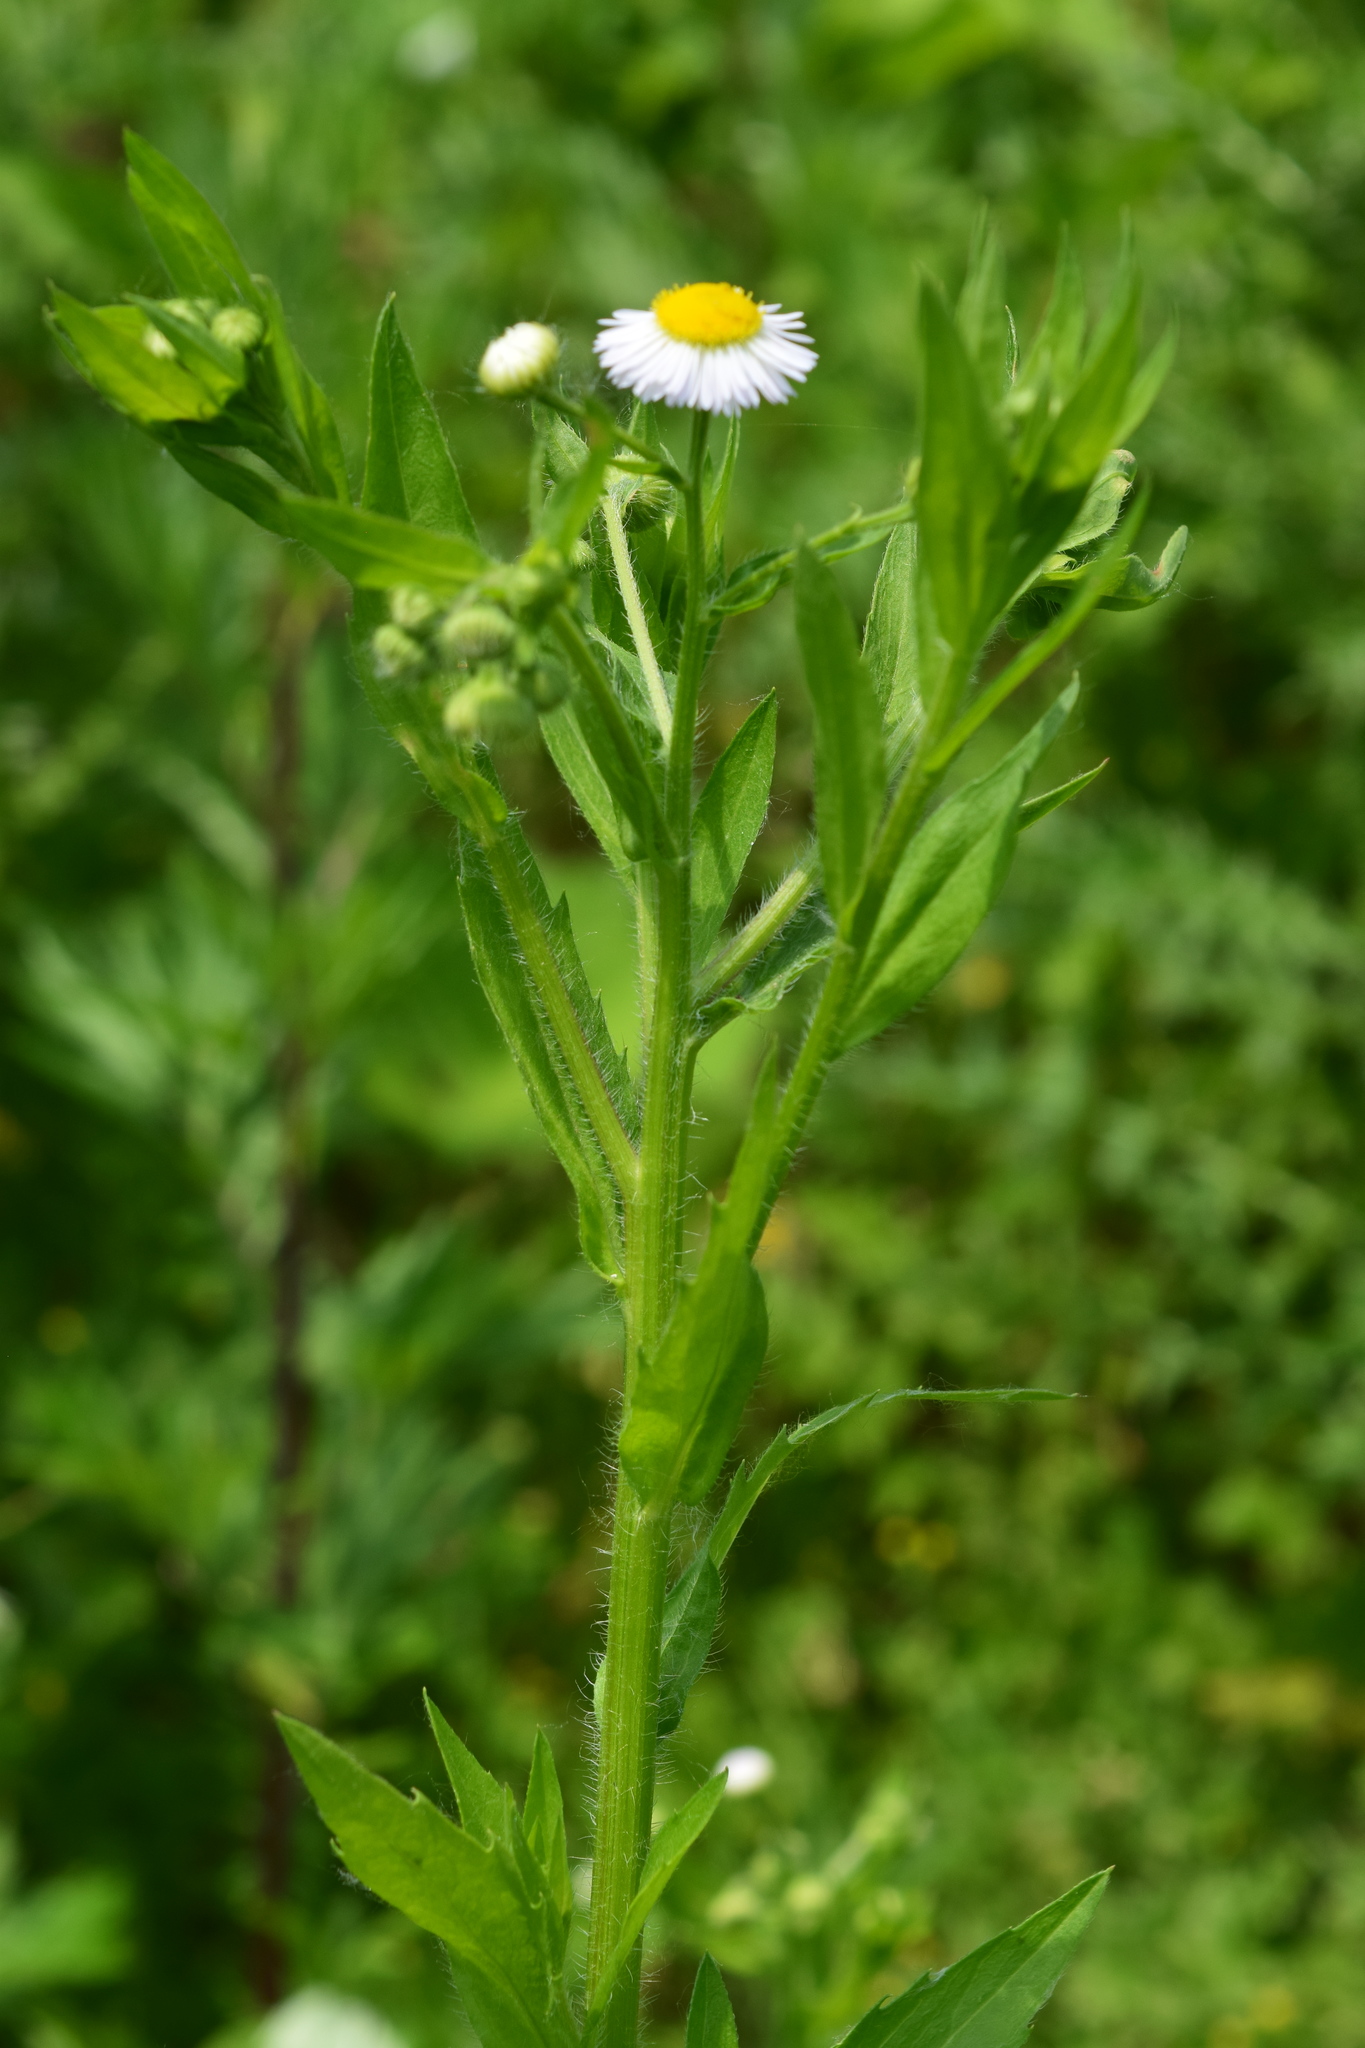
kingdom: Plantae
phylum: Tracheophyta
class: Magnoliopsida
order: Asterales
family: Asteraceae
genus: Erigeron
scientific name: Erigeron annuus
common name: Tall fleabane
